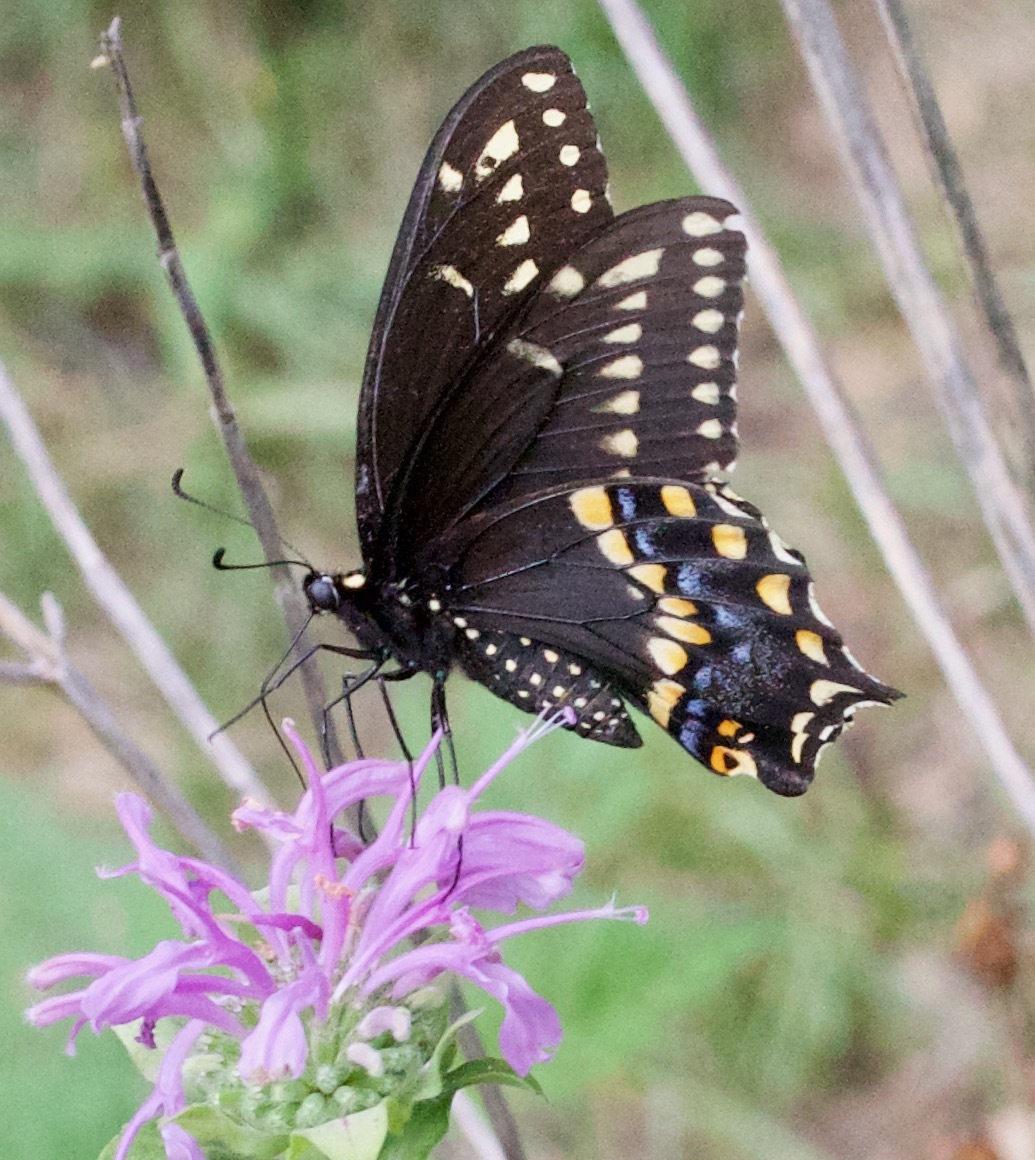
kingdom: Animalia
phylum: Arthropoda
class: Insecta
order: Lepidoptera
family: Papilionidae
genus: Papilio
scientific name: Papilio polyxenes
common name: Black swallowtail
